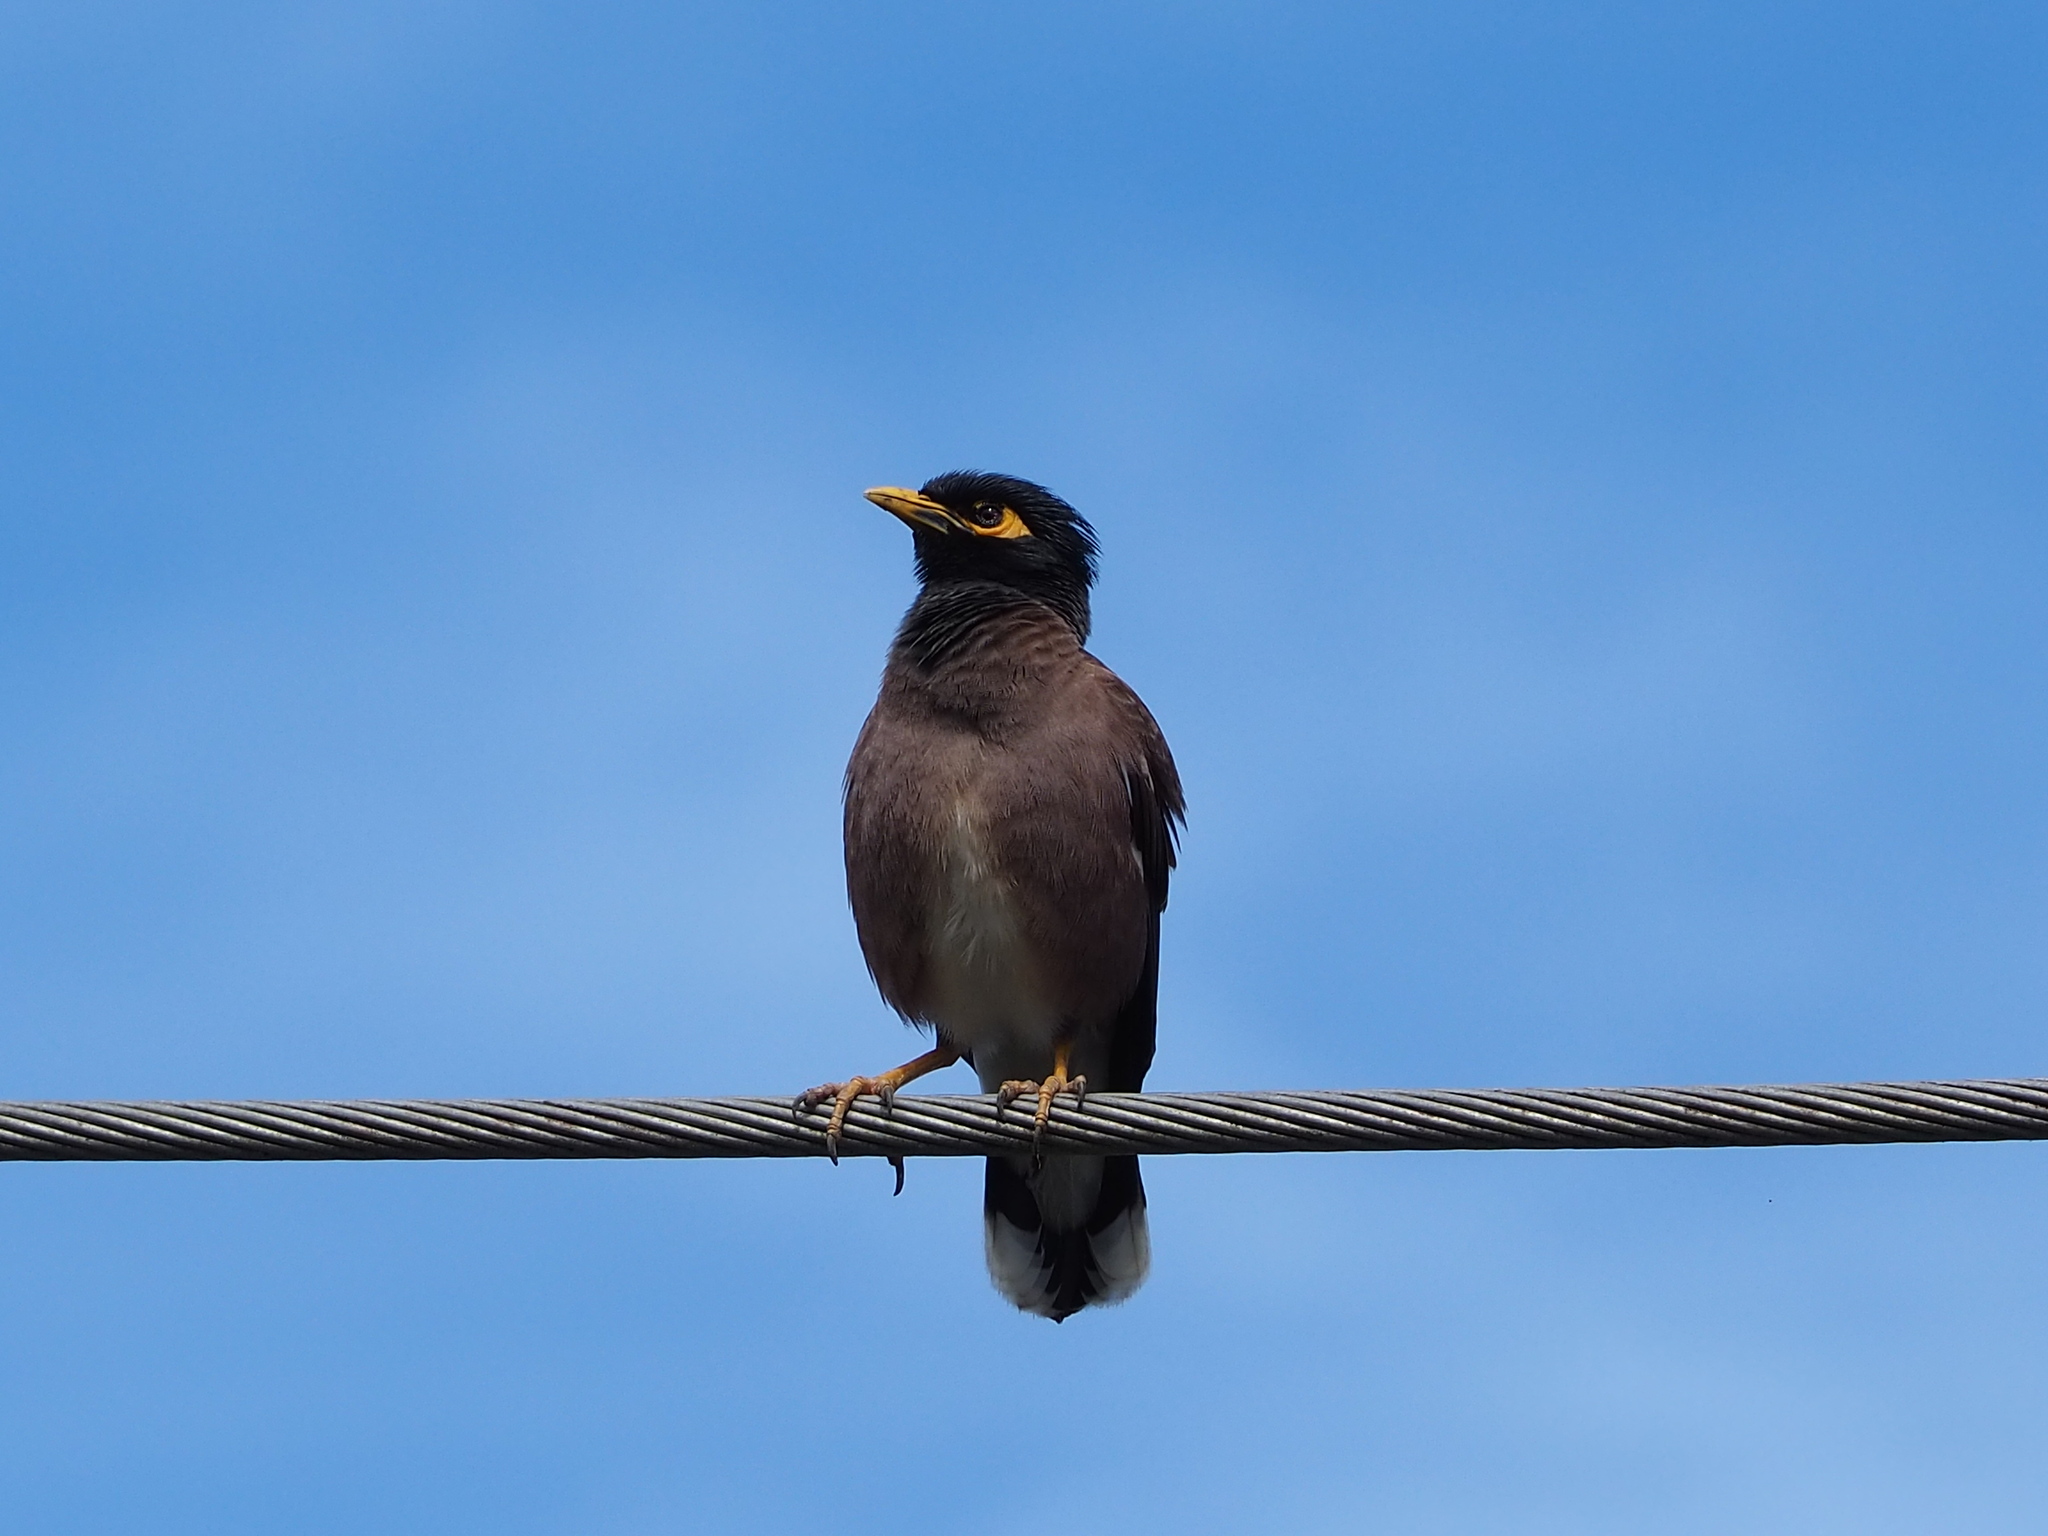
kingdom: Animalia
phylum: Chordata
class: Aves
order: Passeriformes
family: Sturnidae
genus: Acridotheres
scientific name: Acridotheres tristis
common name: Common myna
